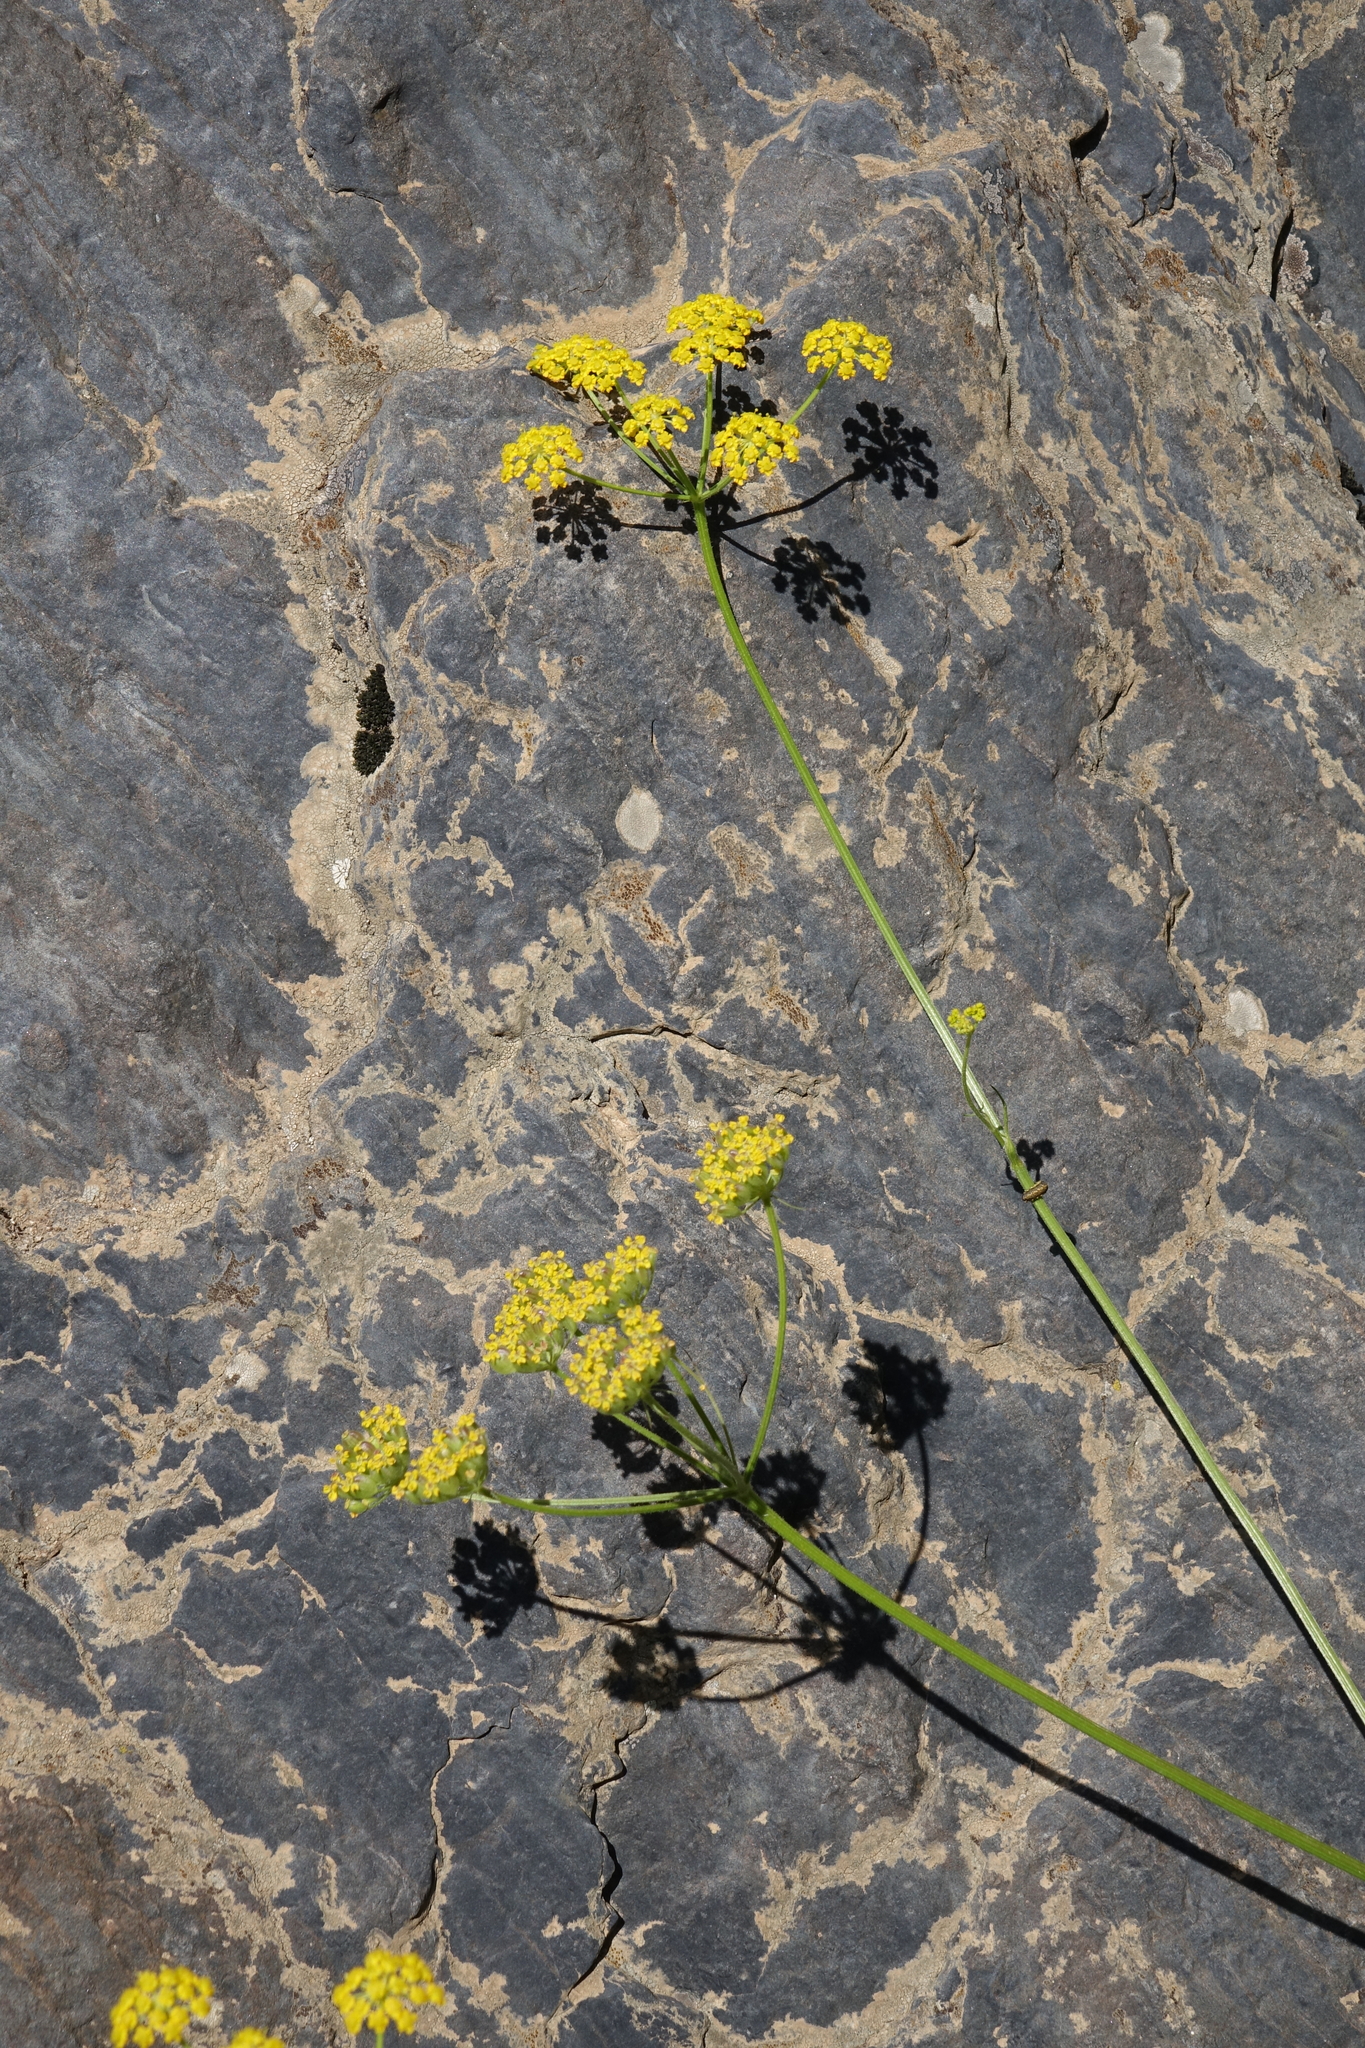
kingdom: Plantae
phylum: Tracheophyta
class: Magnoliopsida
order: Apiales
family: Apiaceae
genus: Bupleurum
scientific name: Bupleurum polyphyllum
